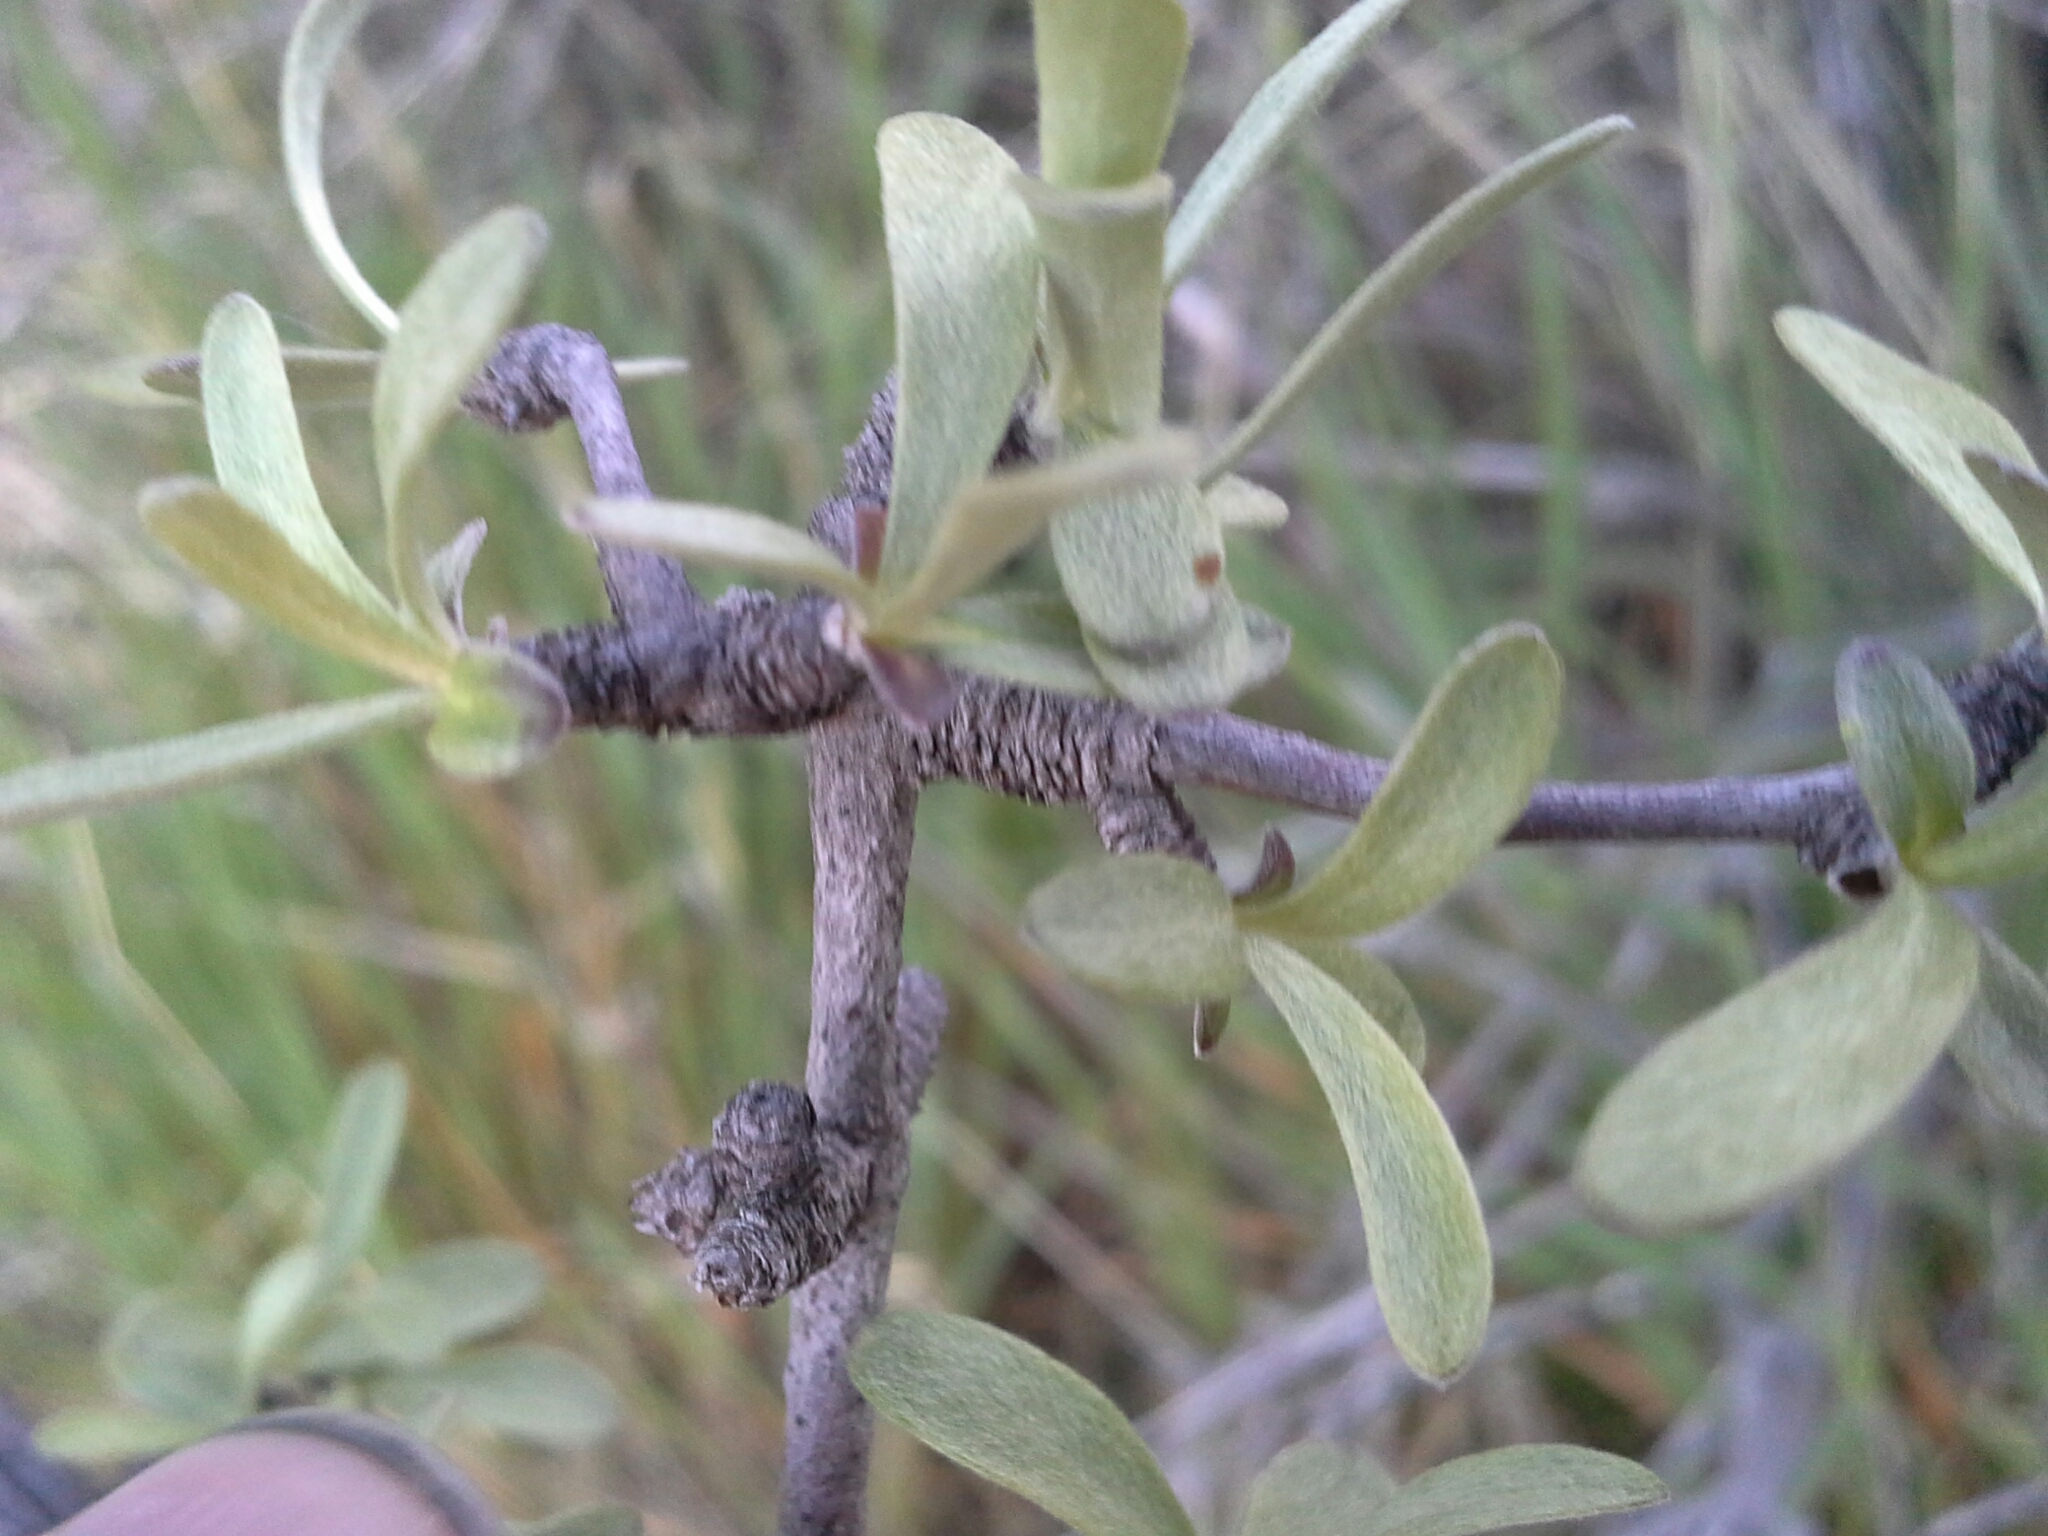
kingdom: Plantae
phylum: Tracheophyta
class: Magnoliopsida
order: Asterales
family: Asteraceae
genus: Olearia
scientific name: Olearia odorata
